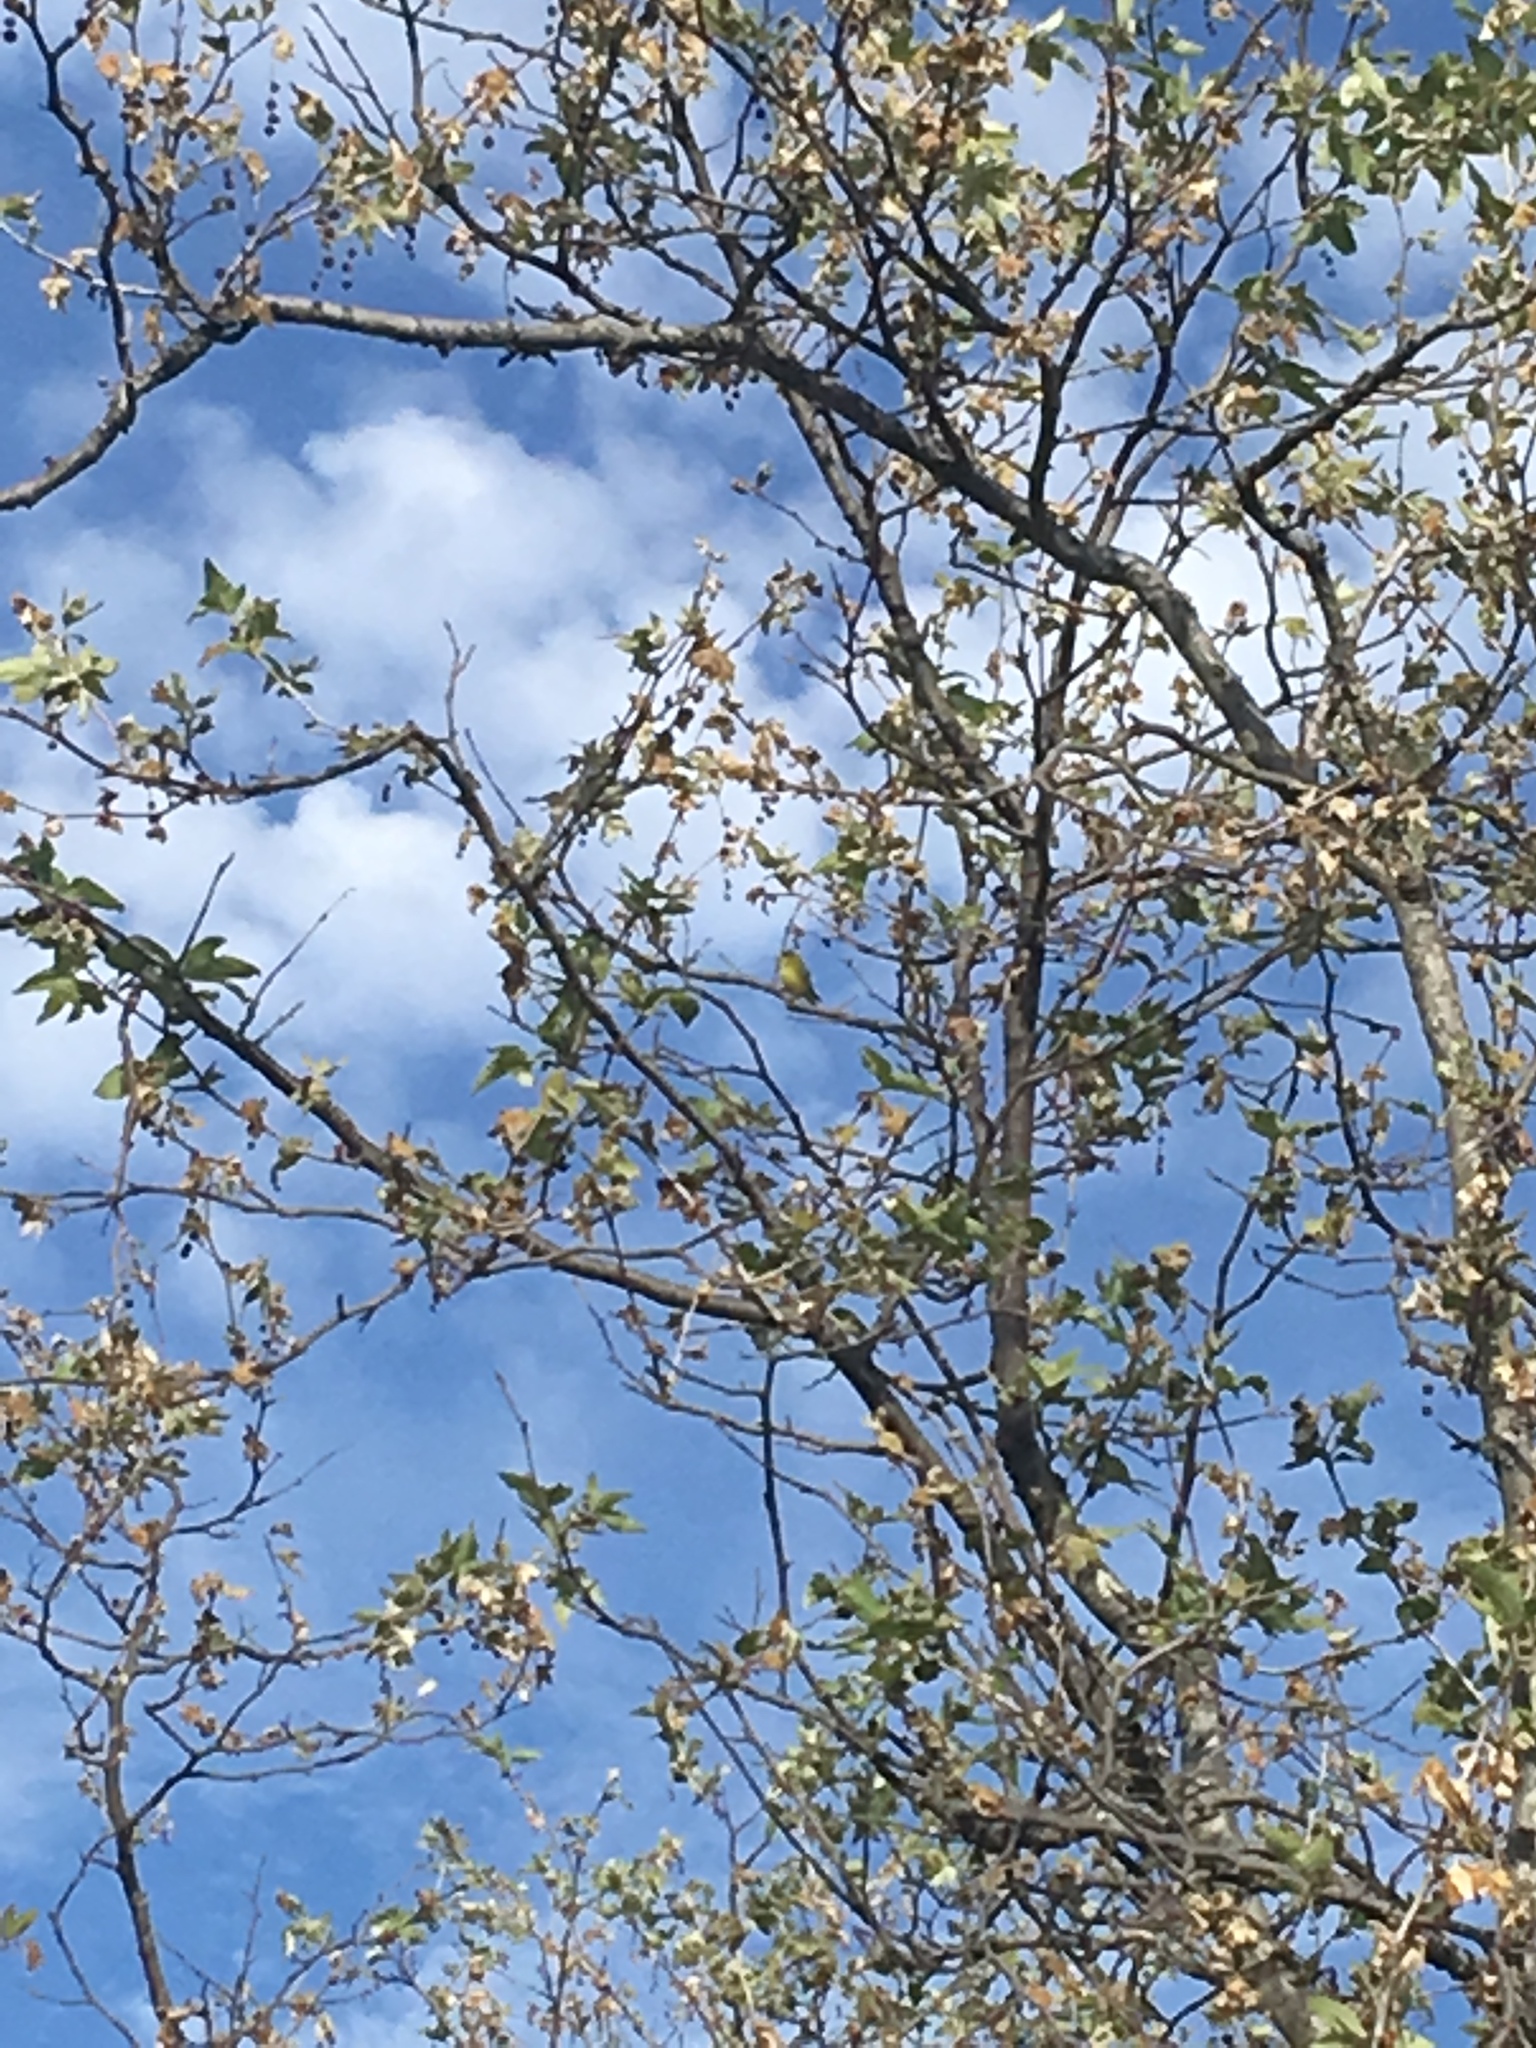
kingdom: Animalia
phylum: Chordata
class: Aves
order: Passeriformes
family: Fringillidae
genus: Spinus
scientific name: Spinus psaltria
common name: Lesser goldfinch
